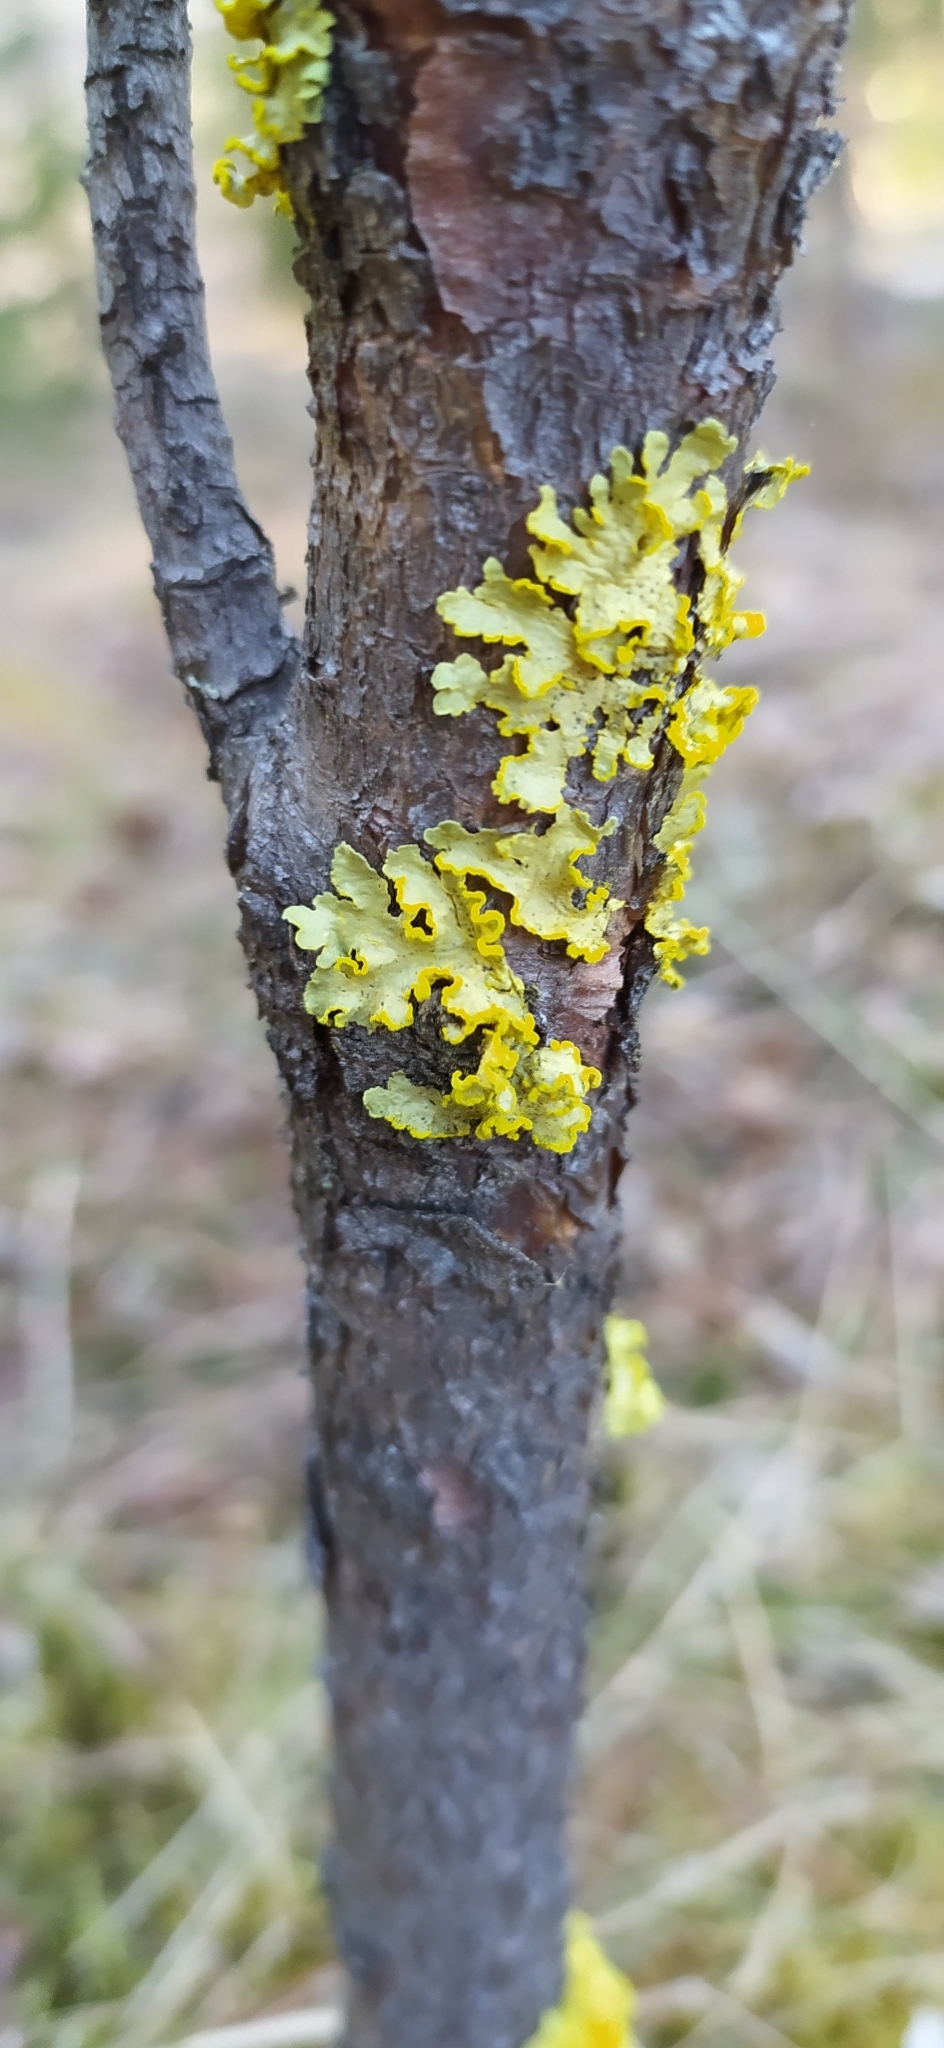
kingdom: Fungi
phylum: Ascomycota
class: Lecanoromycetes
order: Lecanorales
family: Parmeliaceae
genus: Vulpicida
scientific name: Vulpicida pinastri
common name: Powdered sunshine lichen
